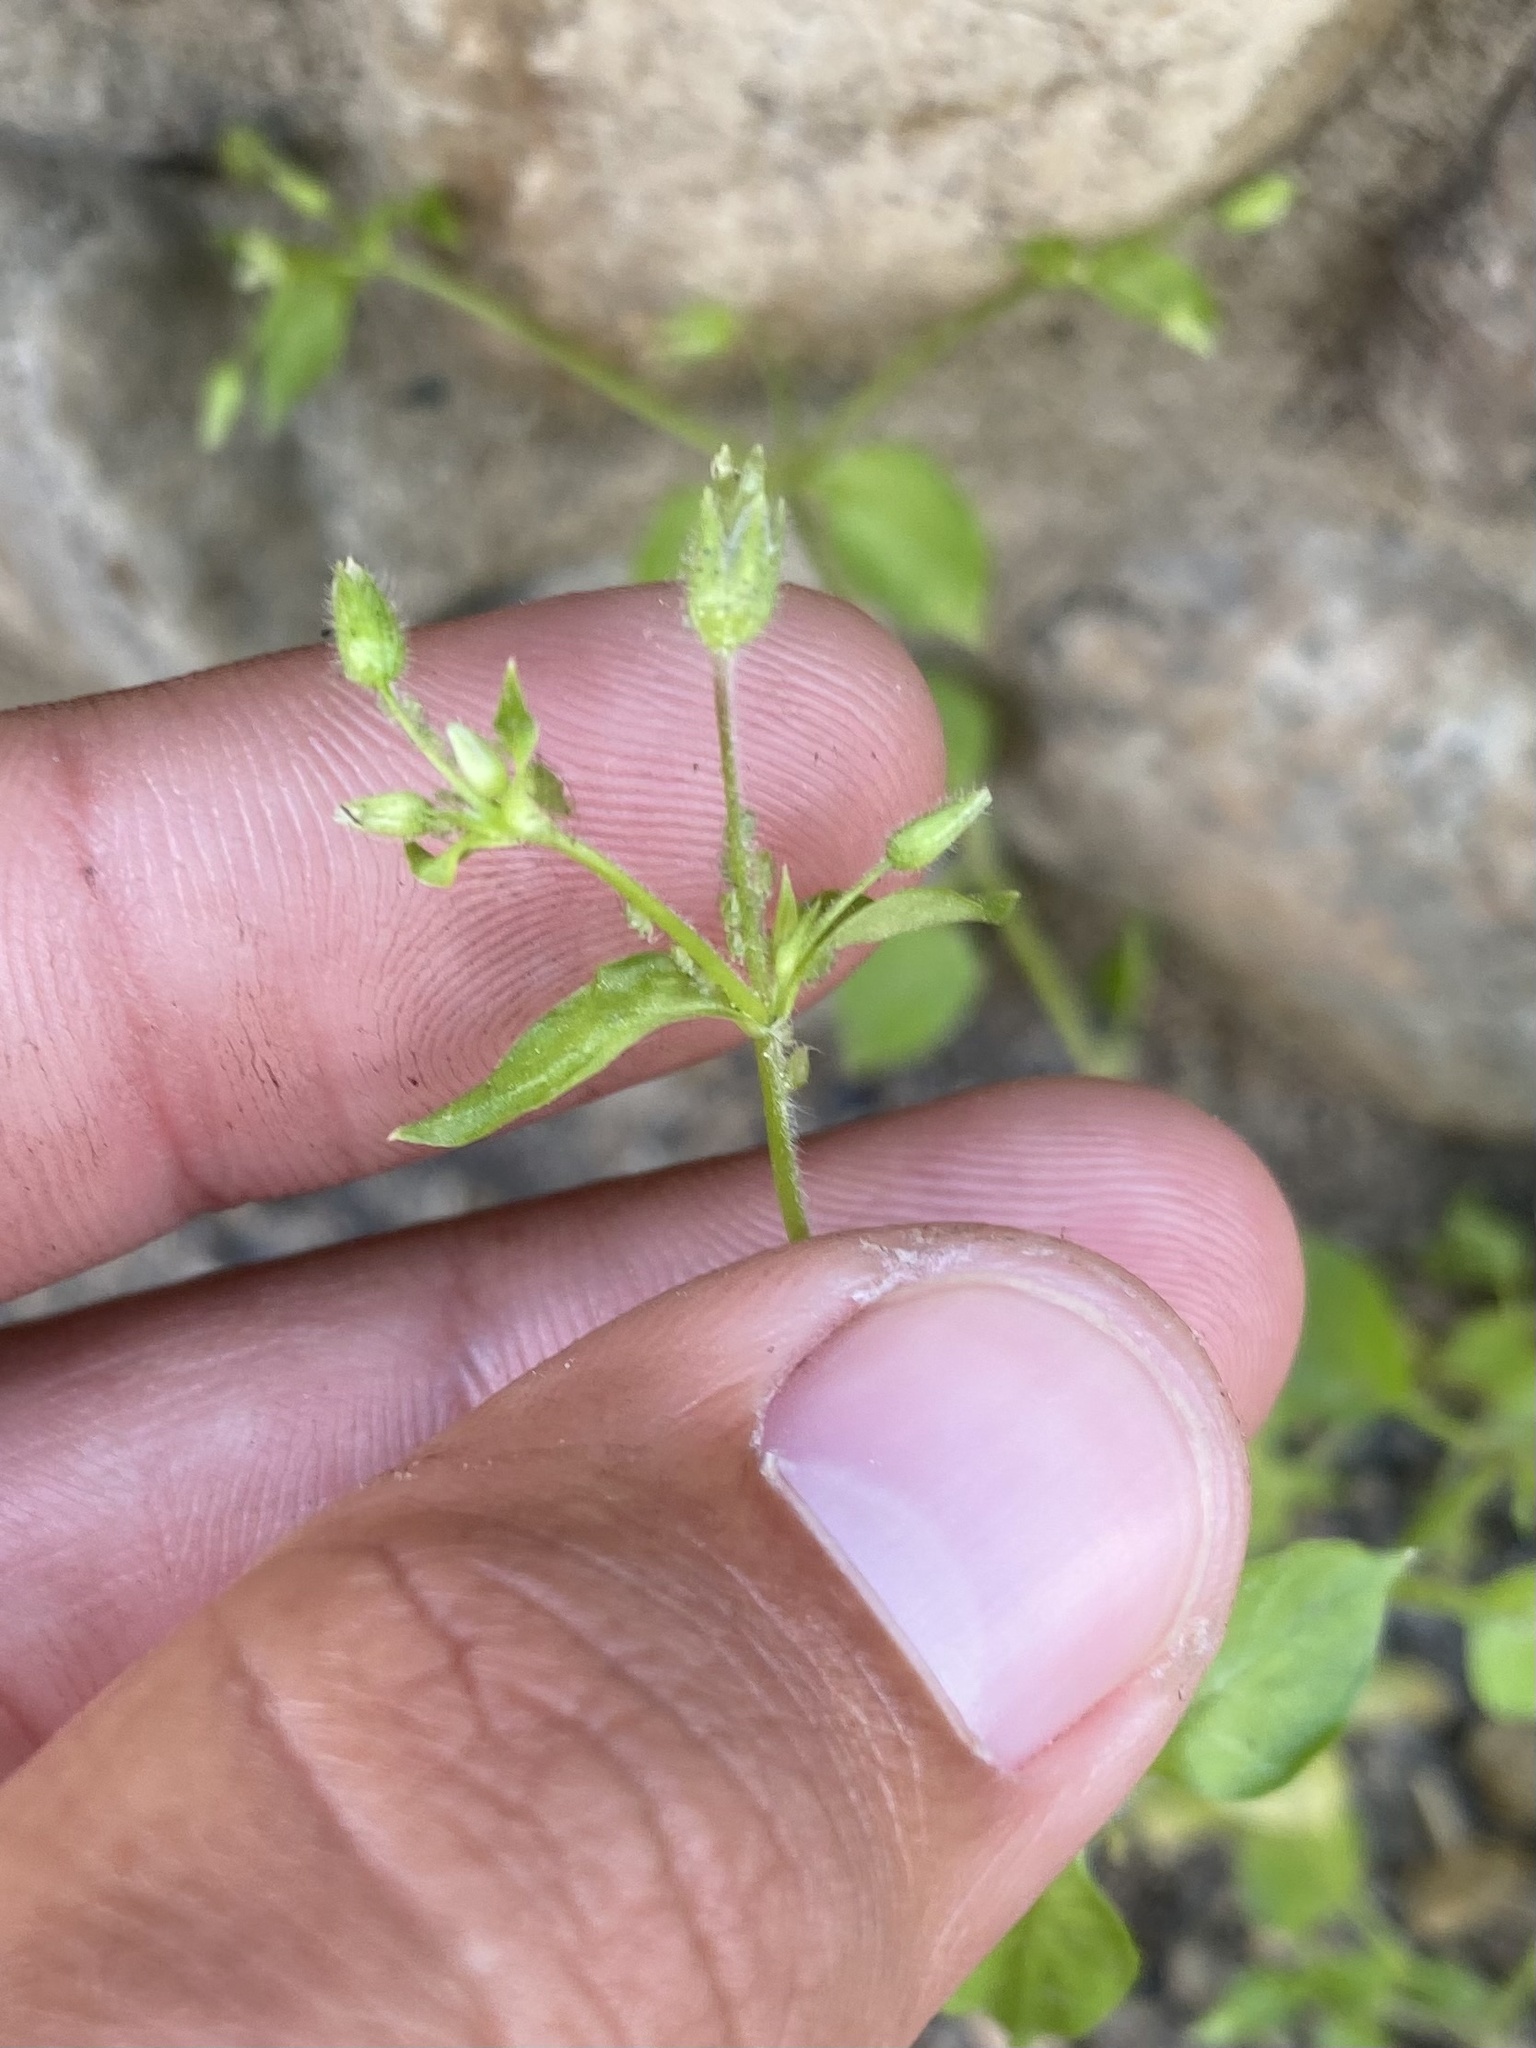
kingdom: Plantae
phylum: Tracheophyta
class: Magnoliopsida
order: Caryophyllales
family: Caryophyllaceae
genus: Stellaria
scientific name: Stellaria media
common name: Common chickweed
